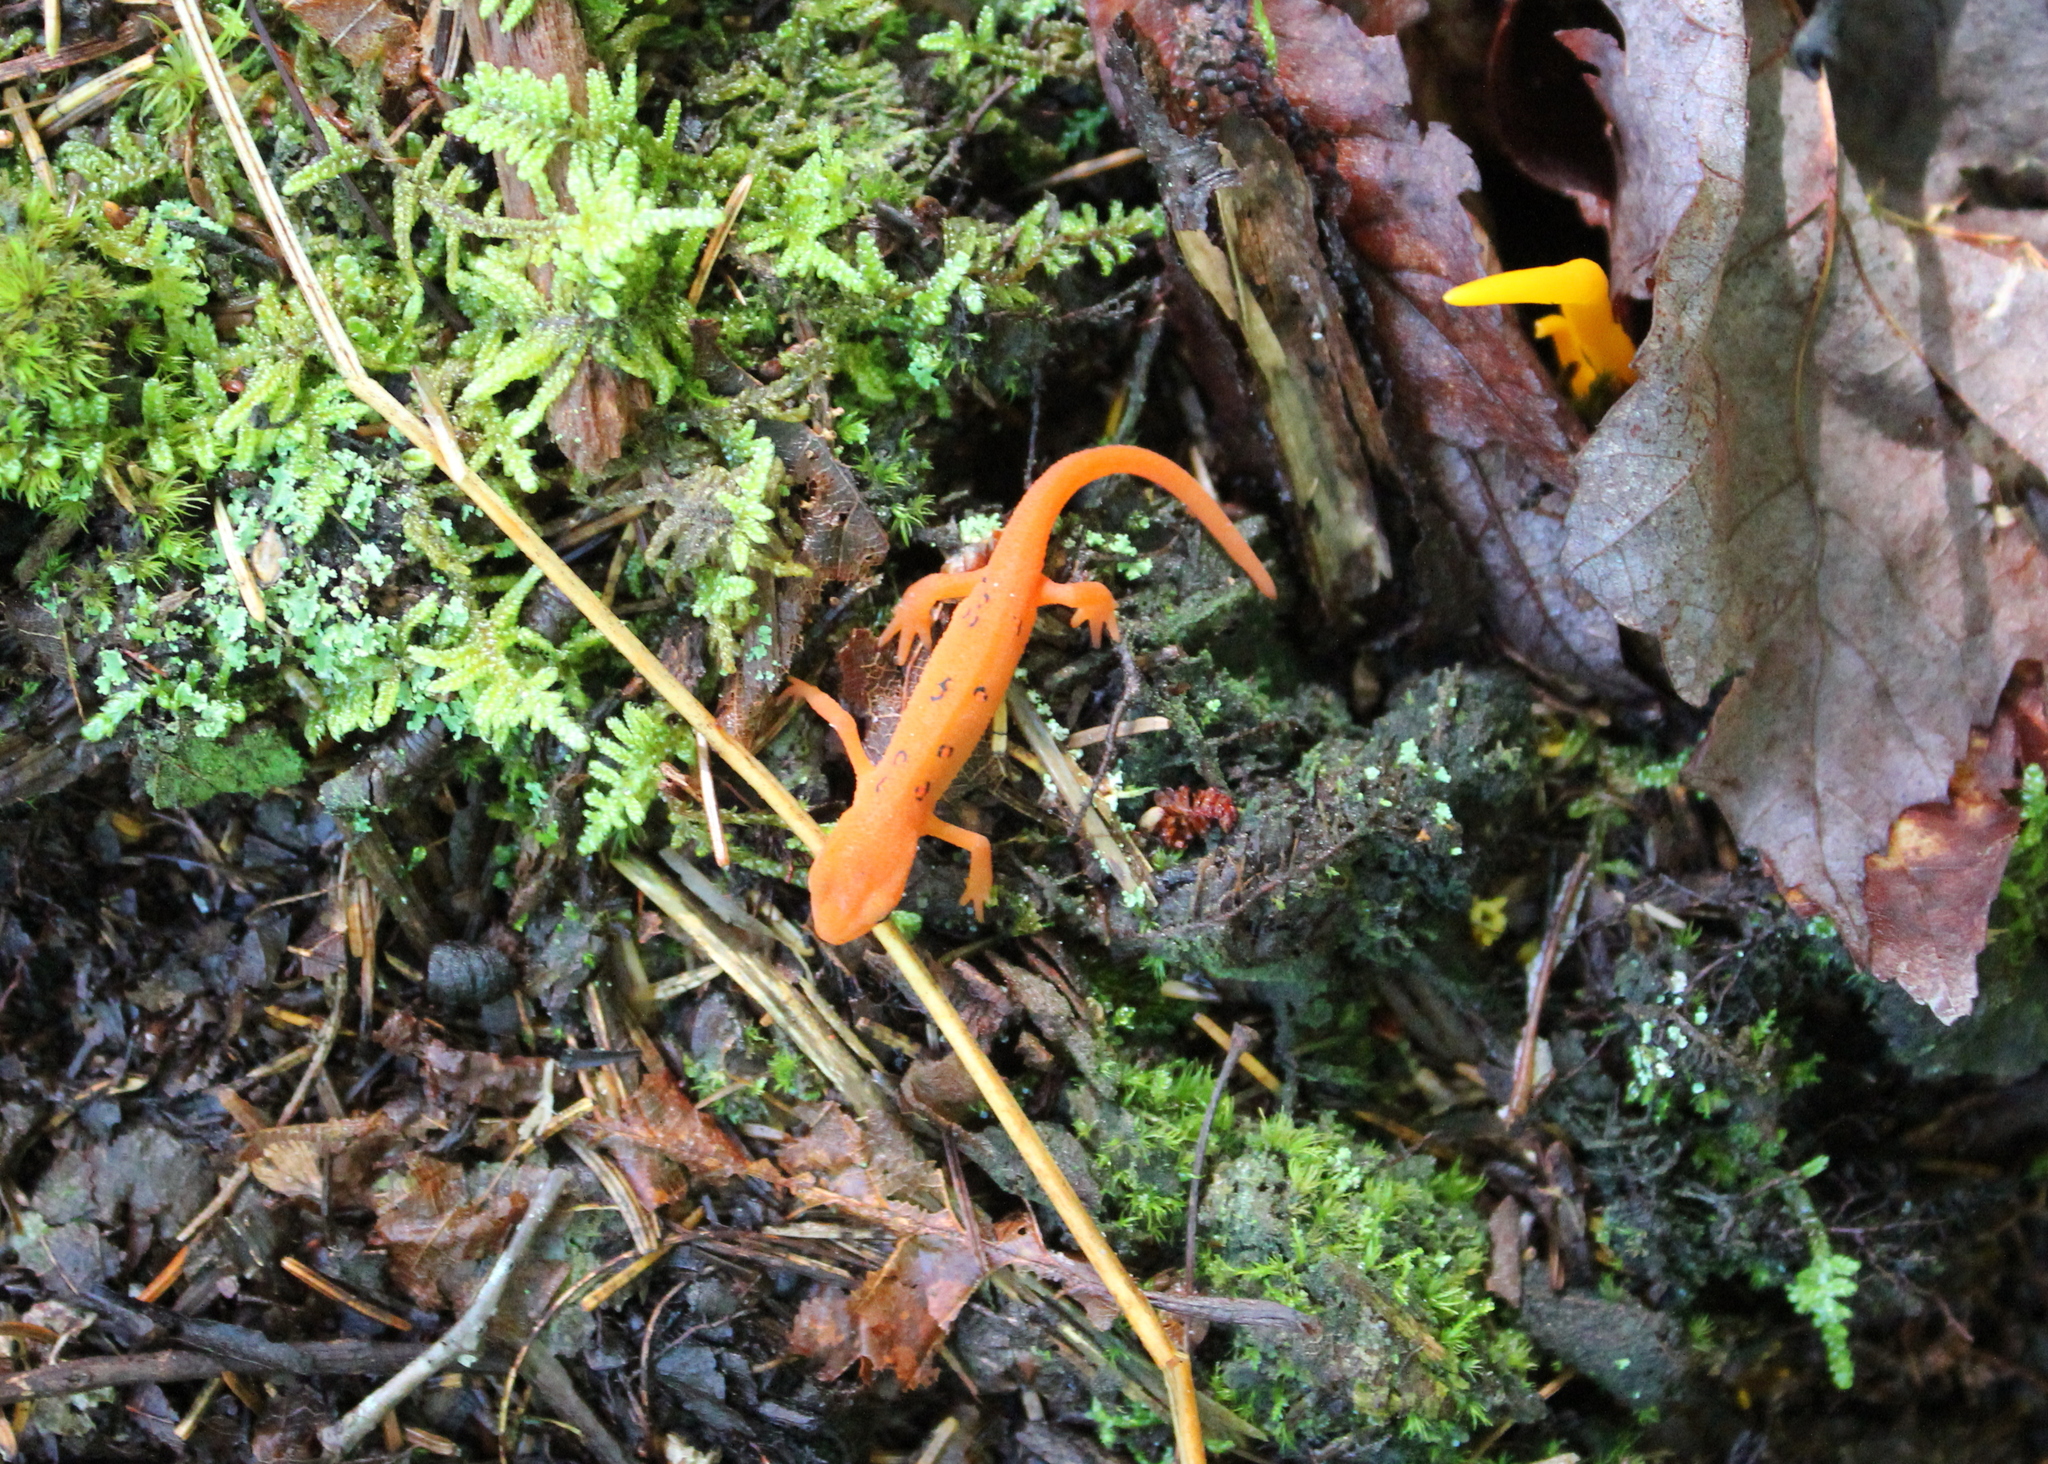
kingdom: Animalia
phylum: Chordata
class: Amphibia
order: Caudata
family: Salamandridae
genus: Notophthalmus
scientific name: Notophthalmus viridescens
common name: Eastern newt
